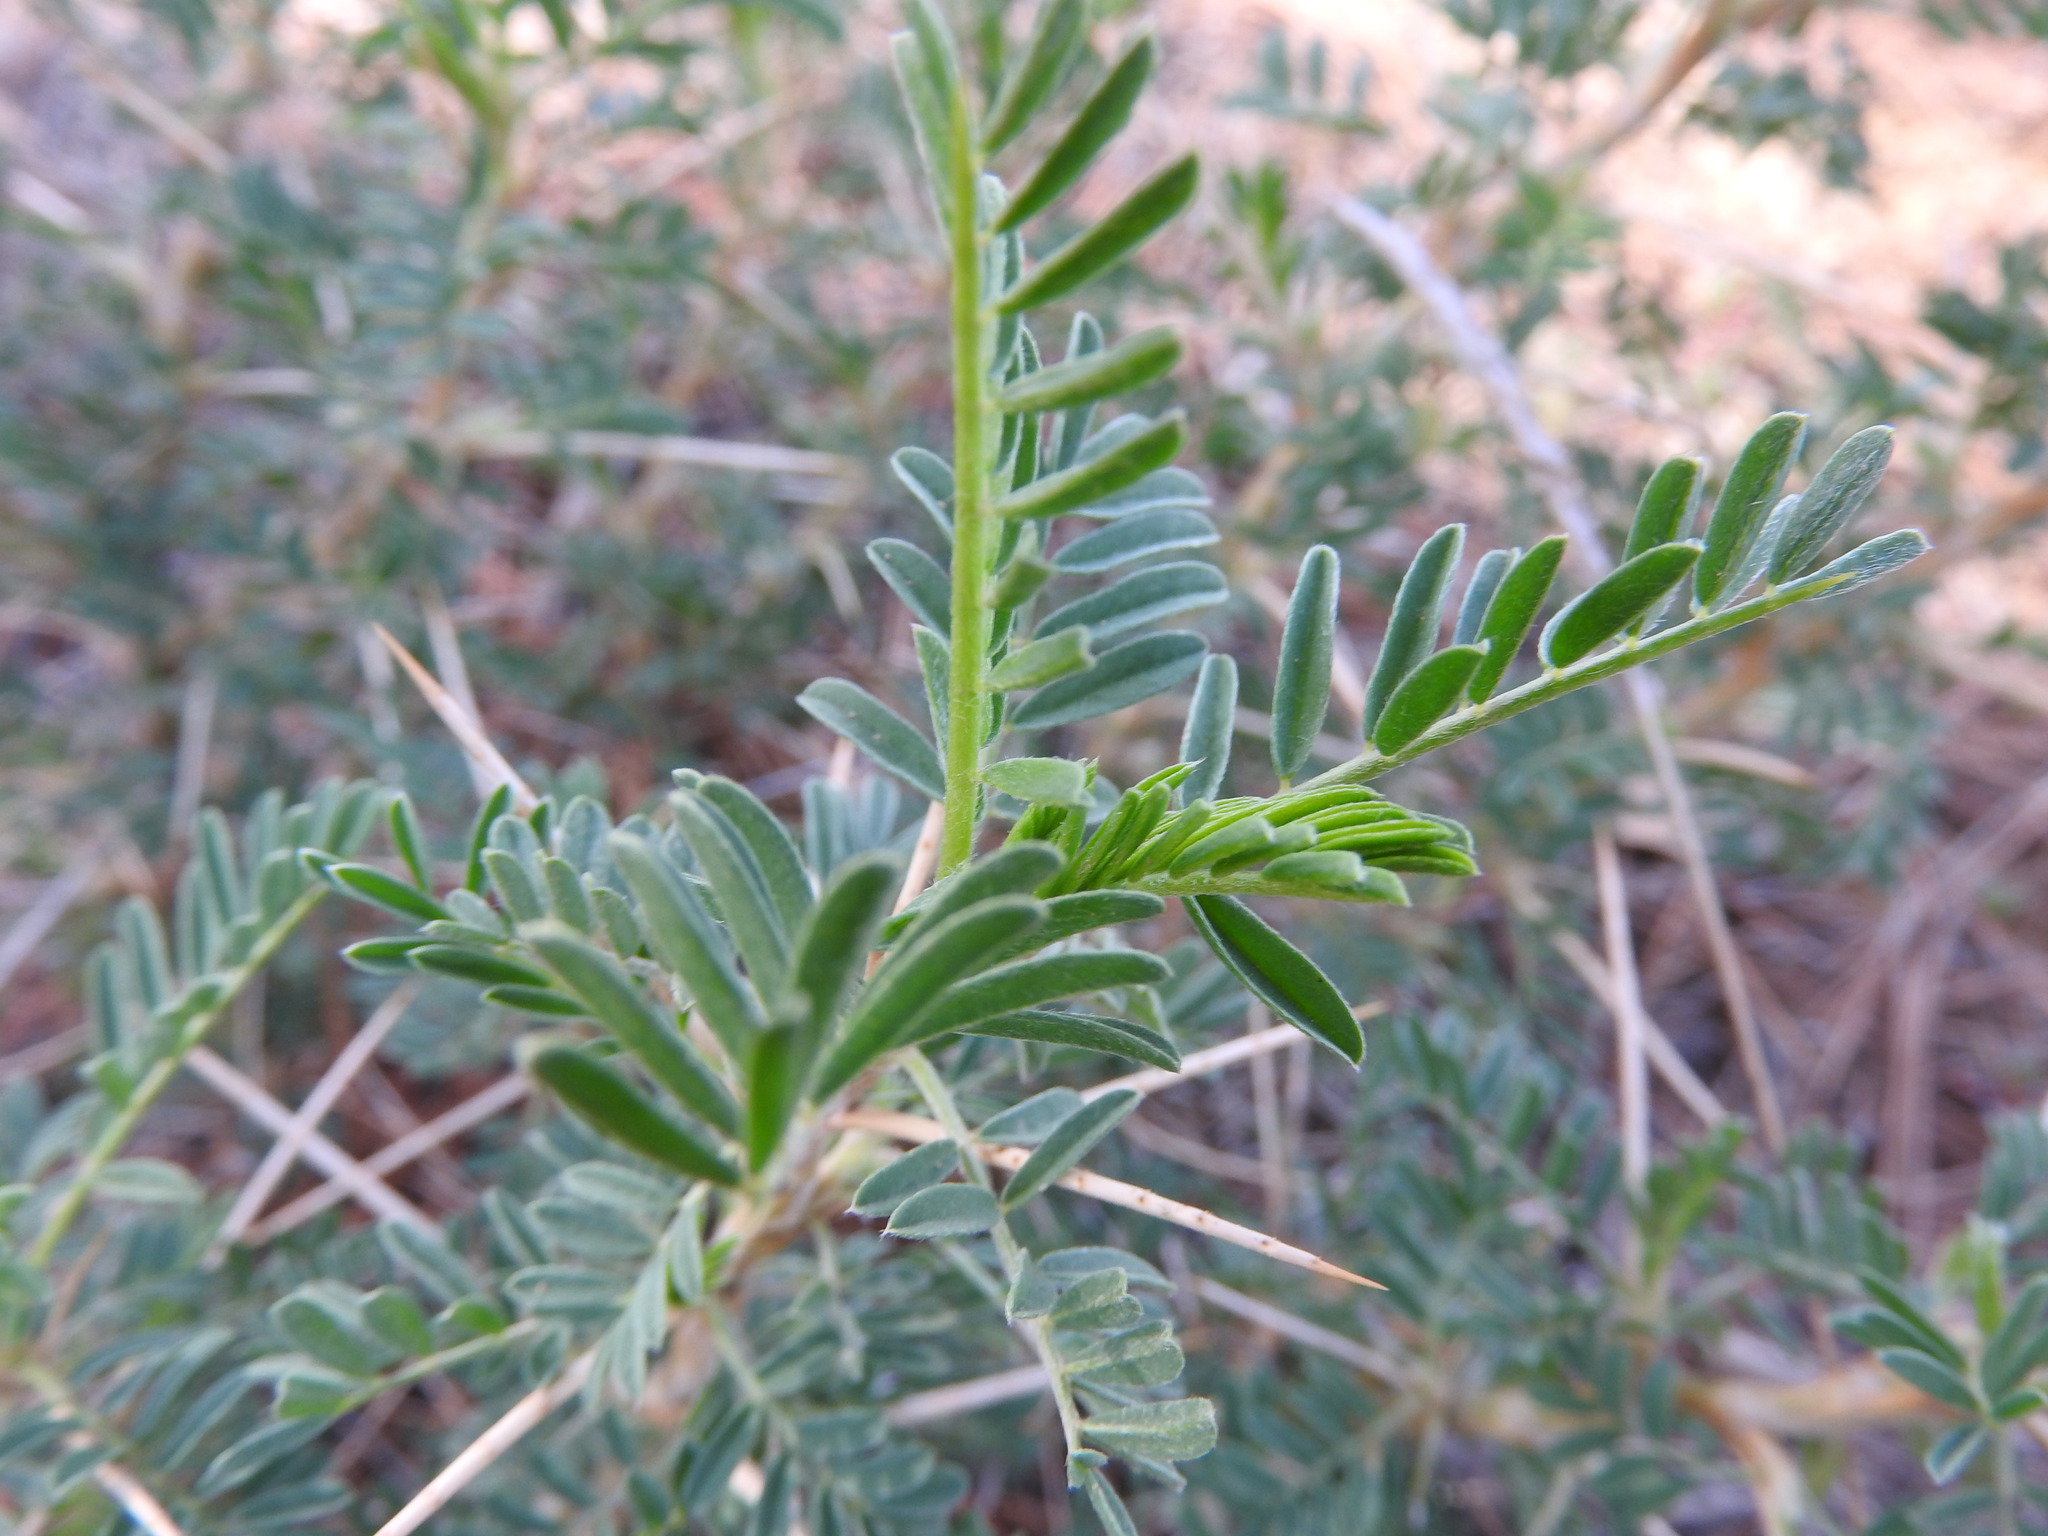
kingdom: Plantae
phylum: Tracheophyta
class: Magnoliopsida
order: Fabales
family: Fabaceae
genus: Astragalus
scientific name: Astragalus armatus
